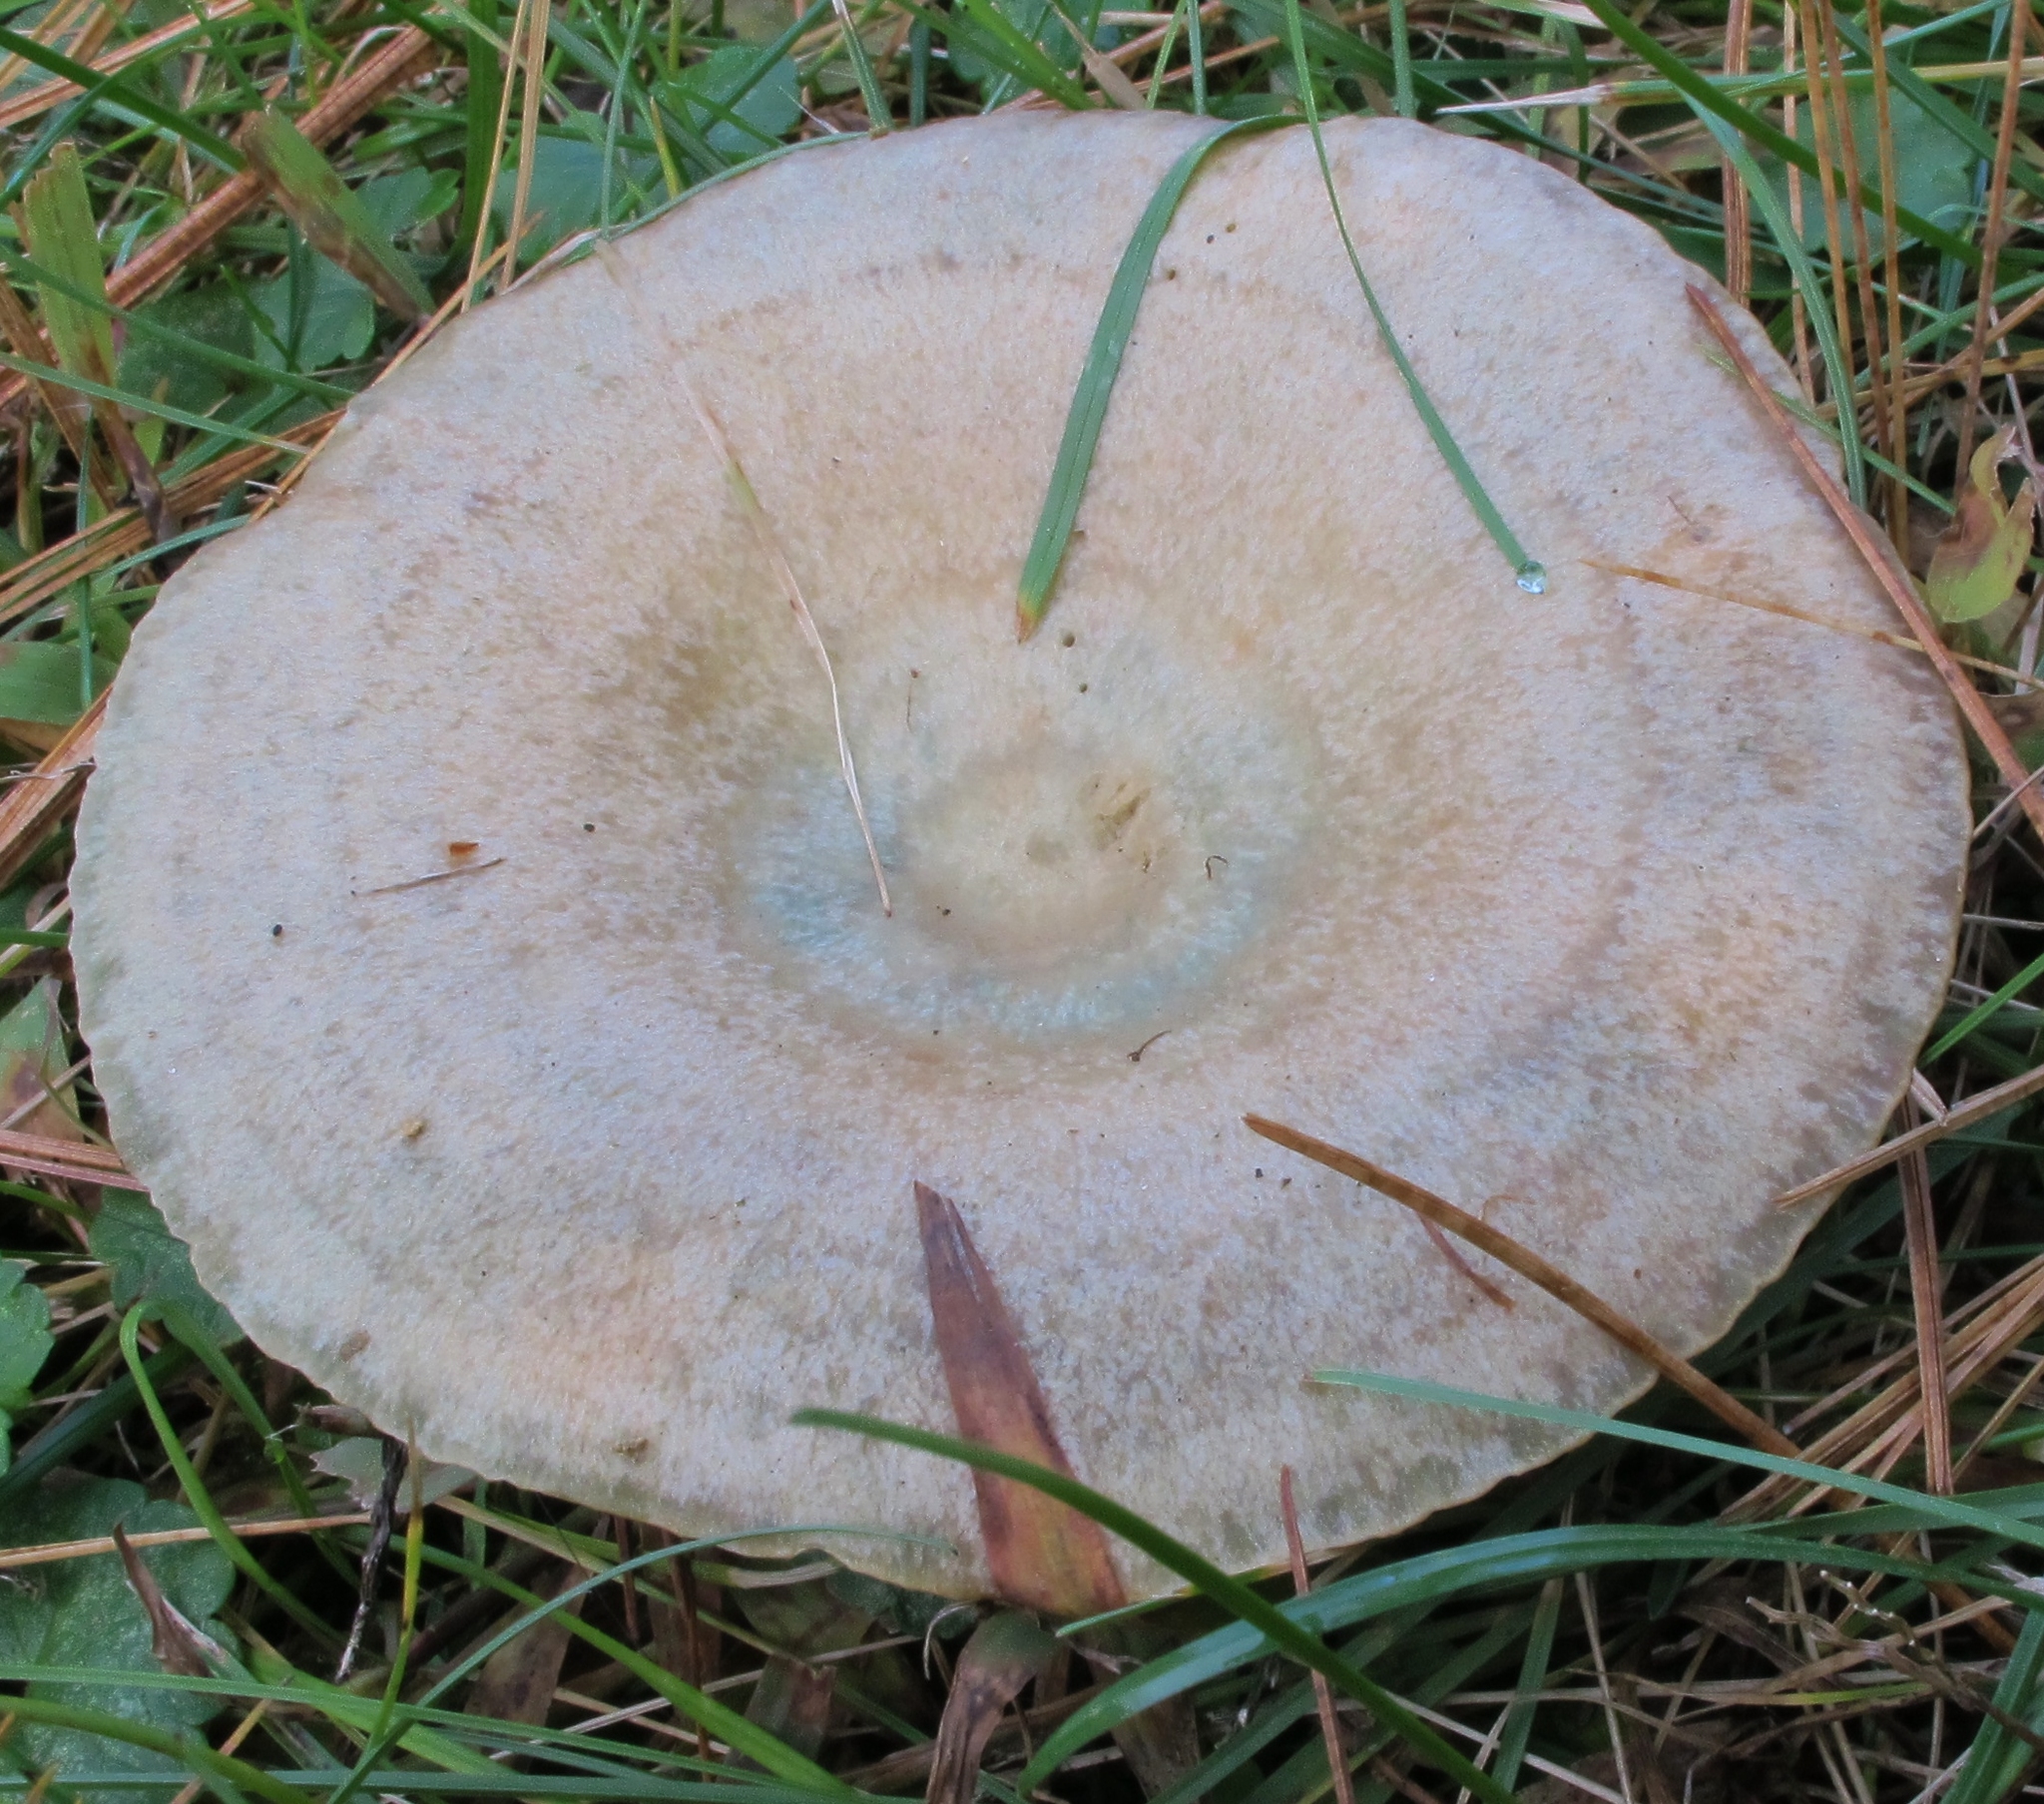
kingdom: Fungi
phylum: Basidiomycota
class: Agaricomycetes
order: Russulales
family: Russulaceae
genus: Lactarius
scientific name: Lactarius chelidonium
